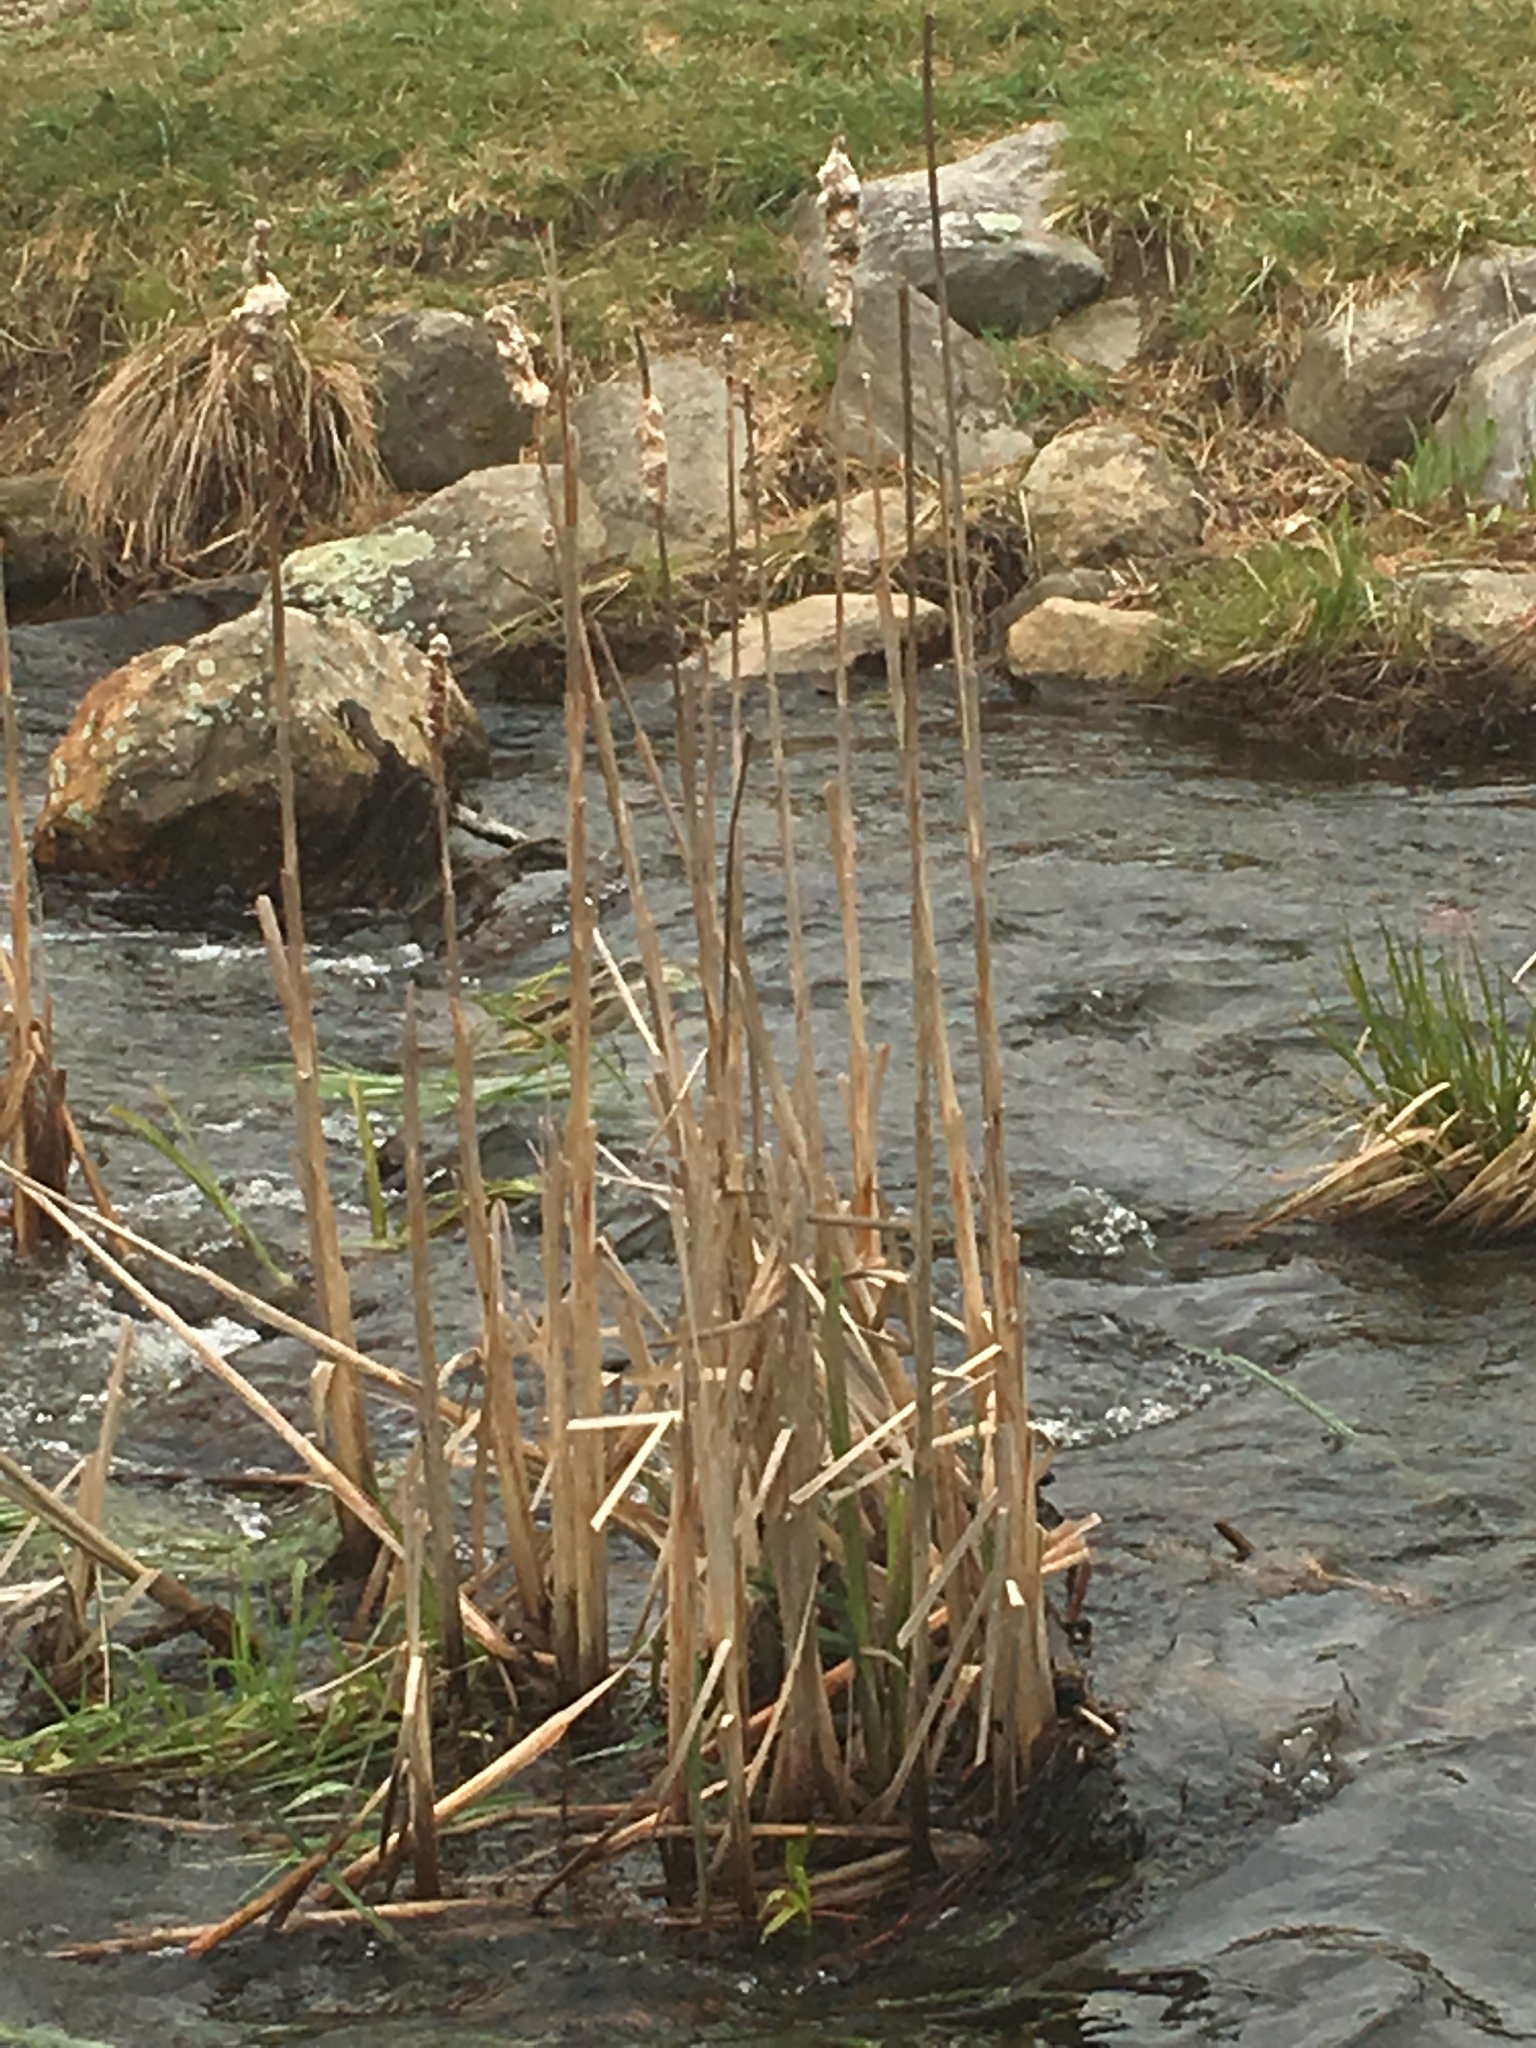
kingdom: Plantae
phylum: Tracheophyta
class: Liliopsida
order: Poales
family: Typhaceae
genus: Typha
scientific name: Typha angustifolia
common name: Lesser bulrush
